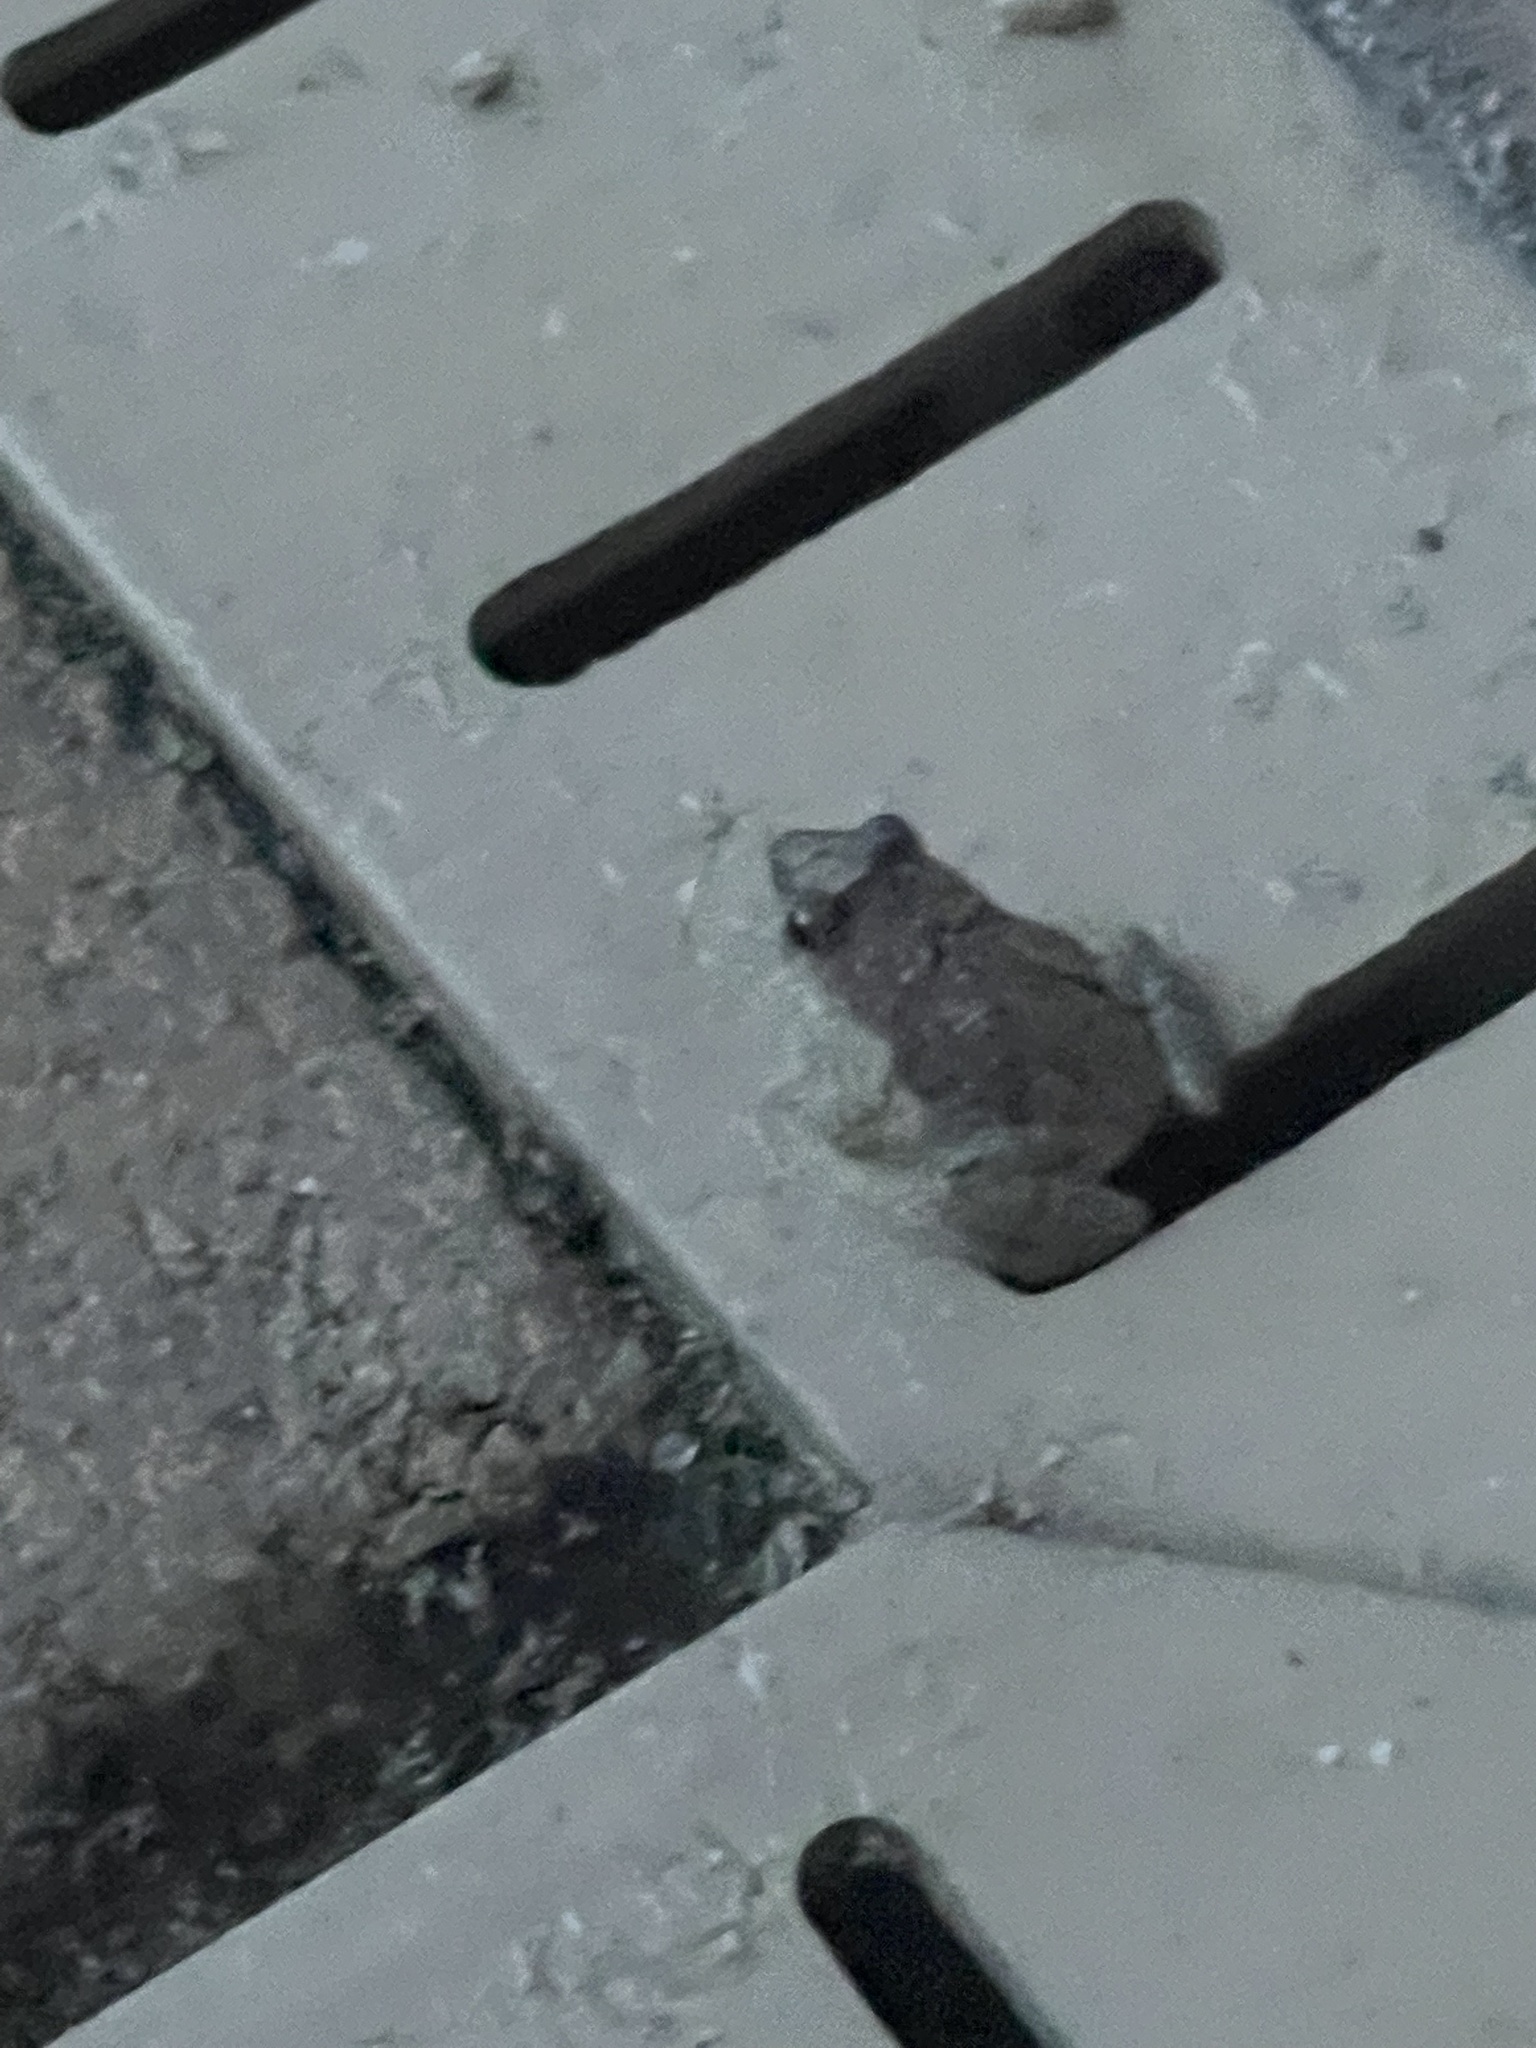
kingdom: Animalia
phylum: Chordata
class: Amphibia
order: Anura
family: Eleutherodactylidae
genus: Eleutherodactylus
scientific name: Eleutherodactylus planirostris
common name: Greenhouse frog
